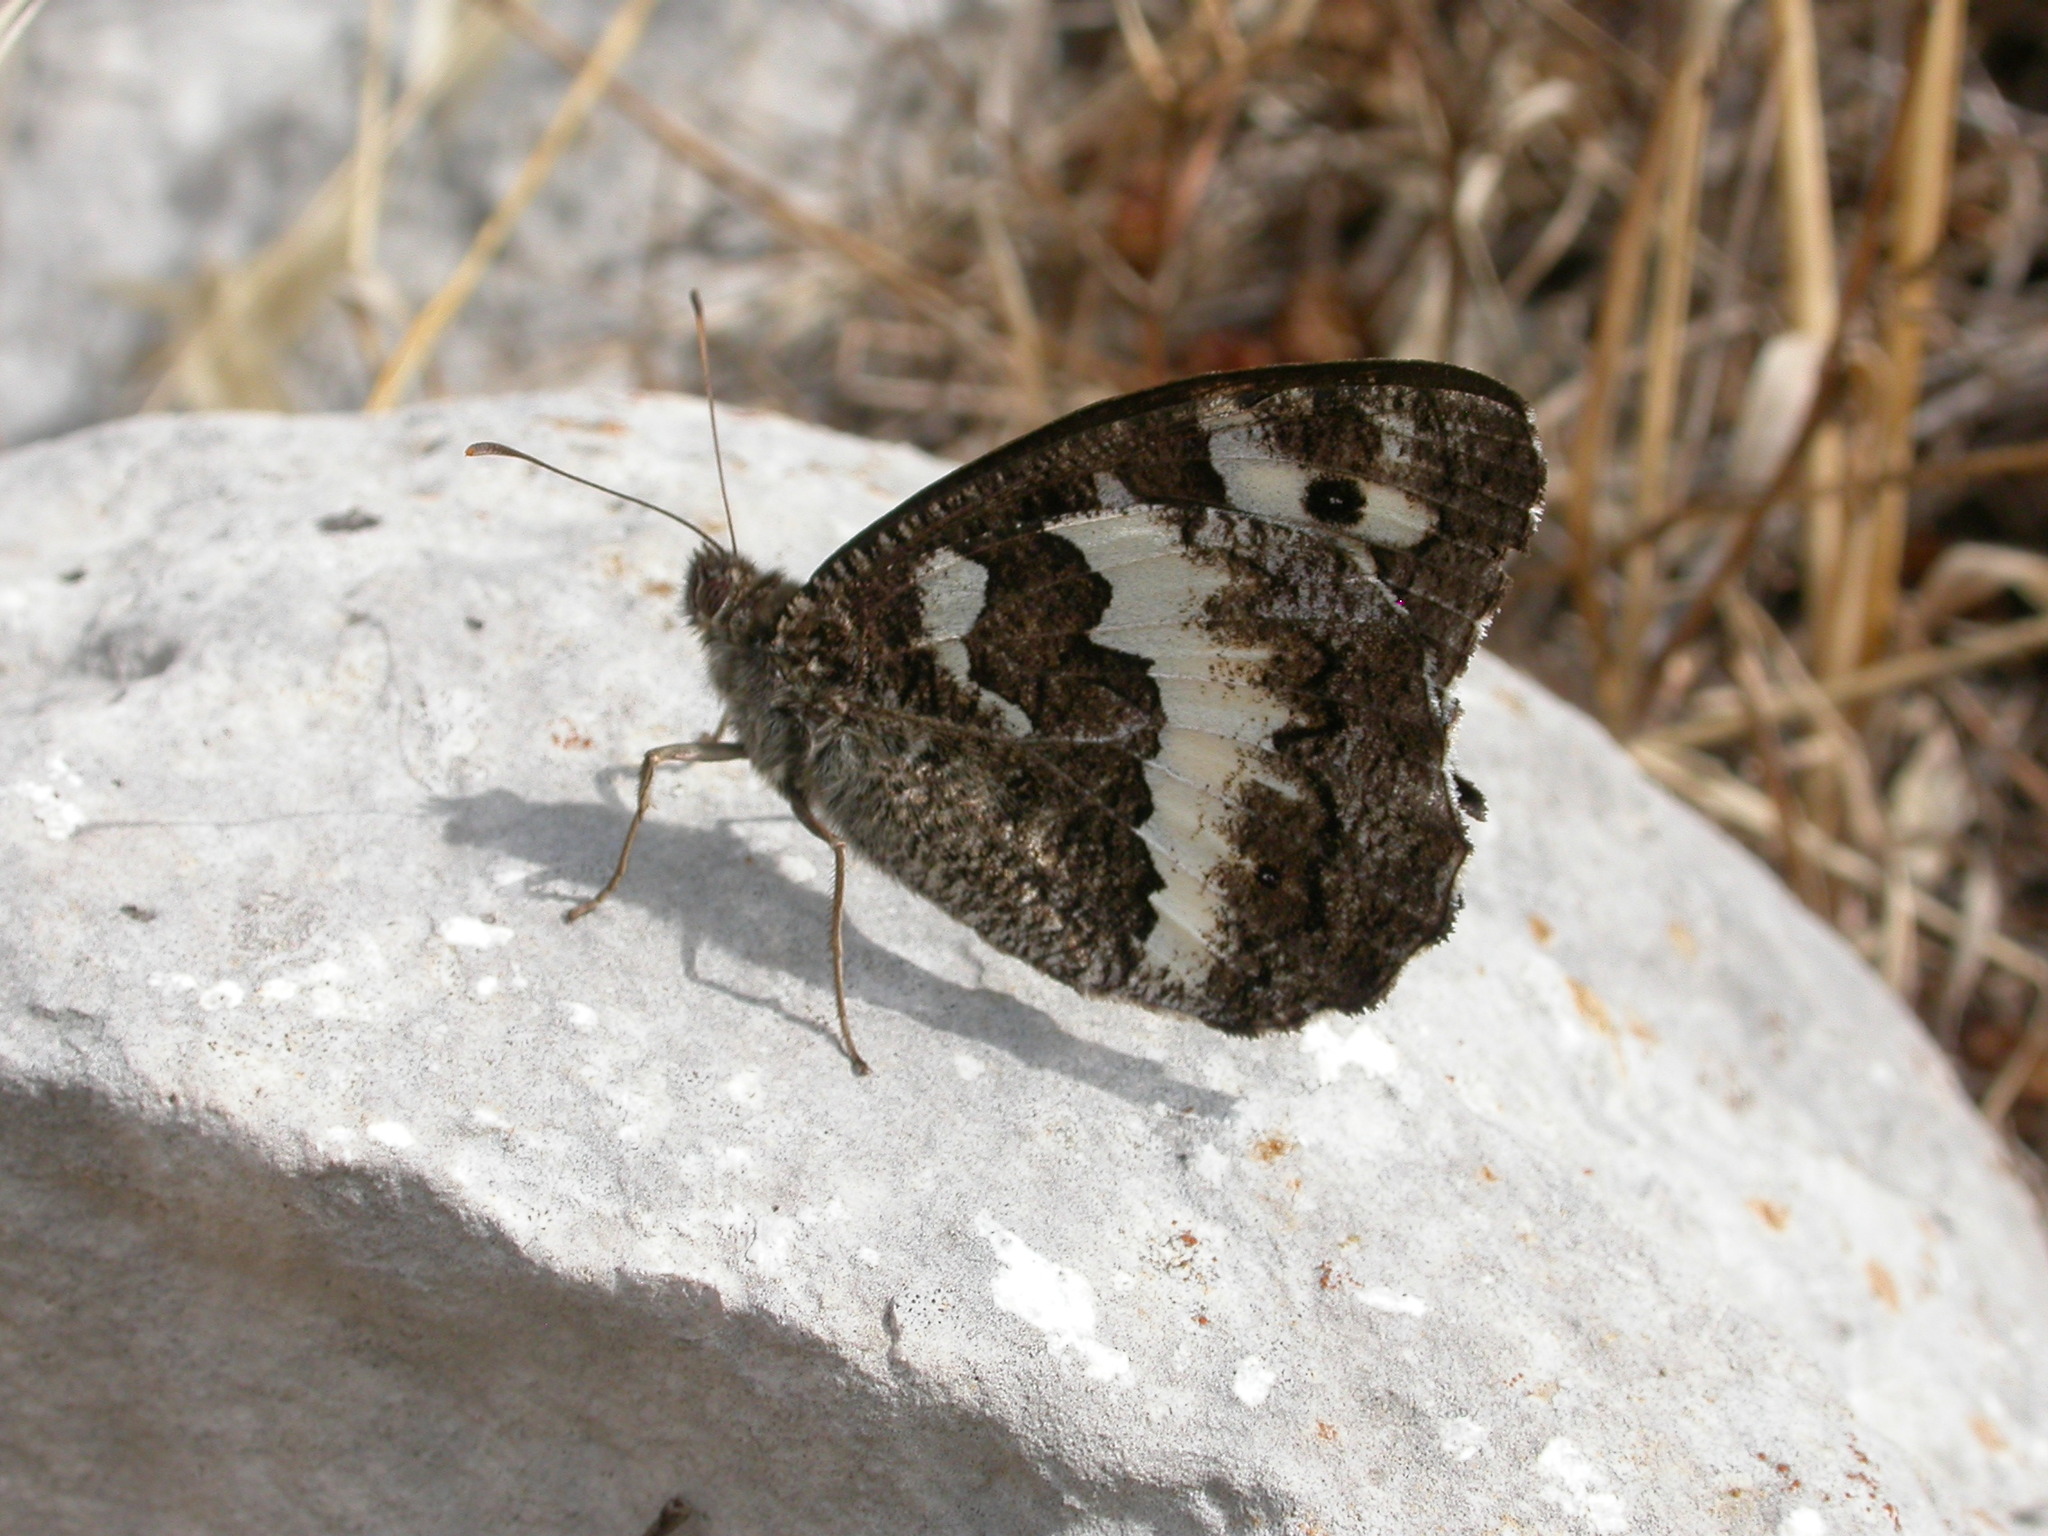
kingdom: Animalia
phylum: Arthropoda
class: Insecta
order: Lepidoptera
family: Lycaenidae
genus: Loweia
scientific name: Loweia tityrus
